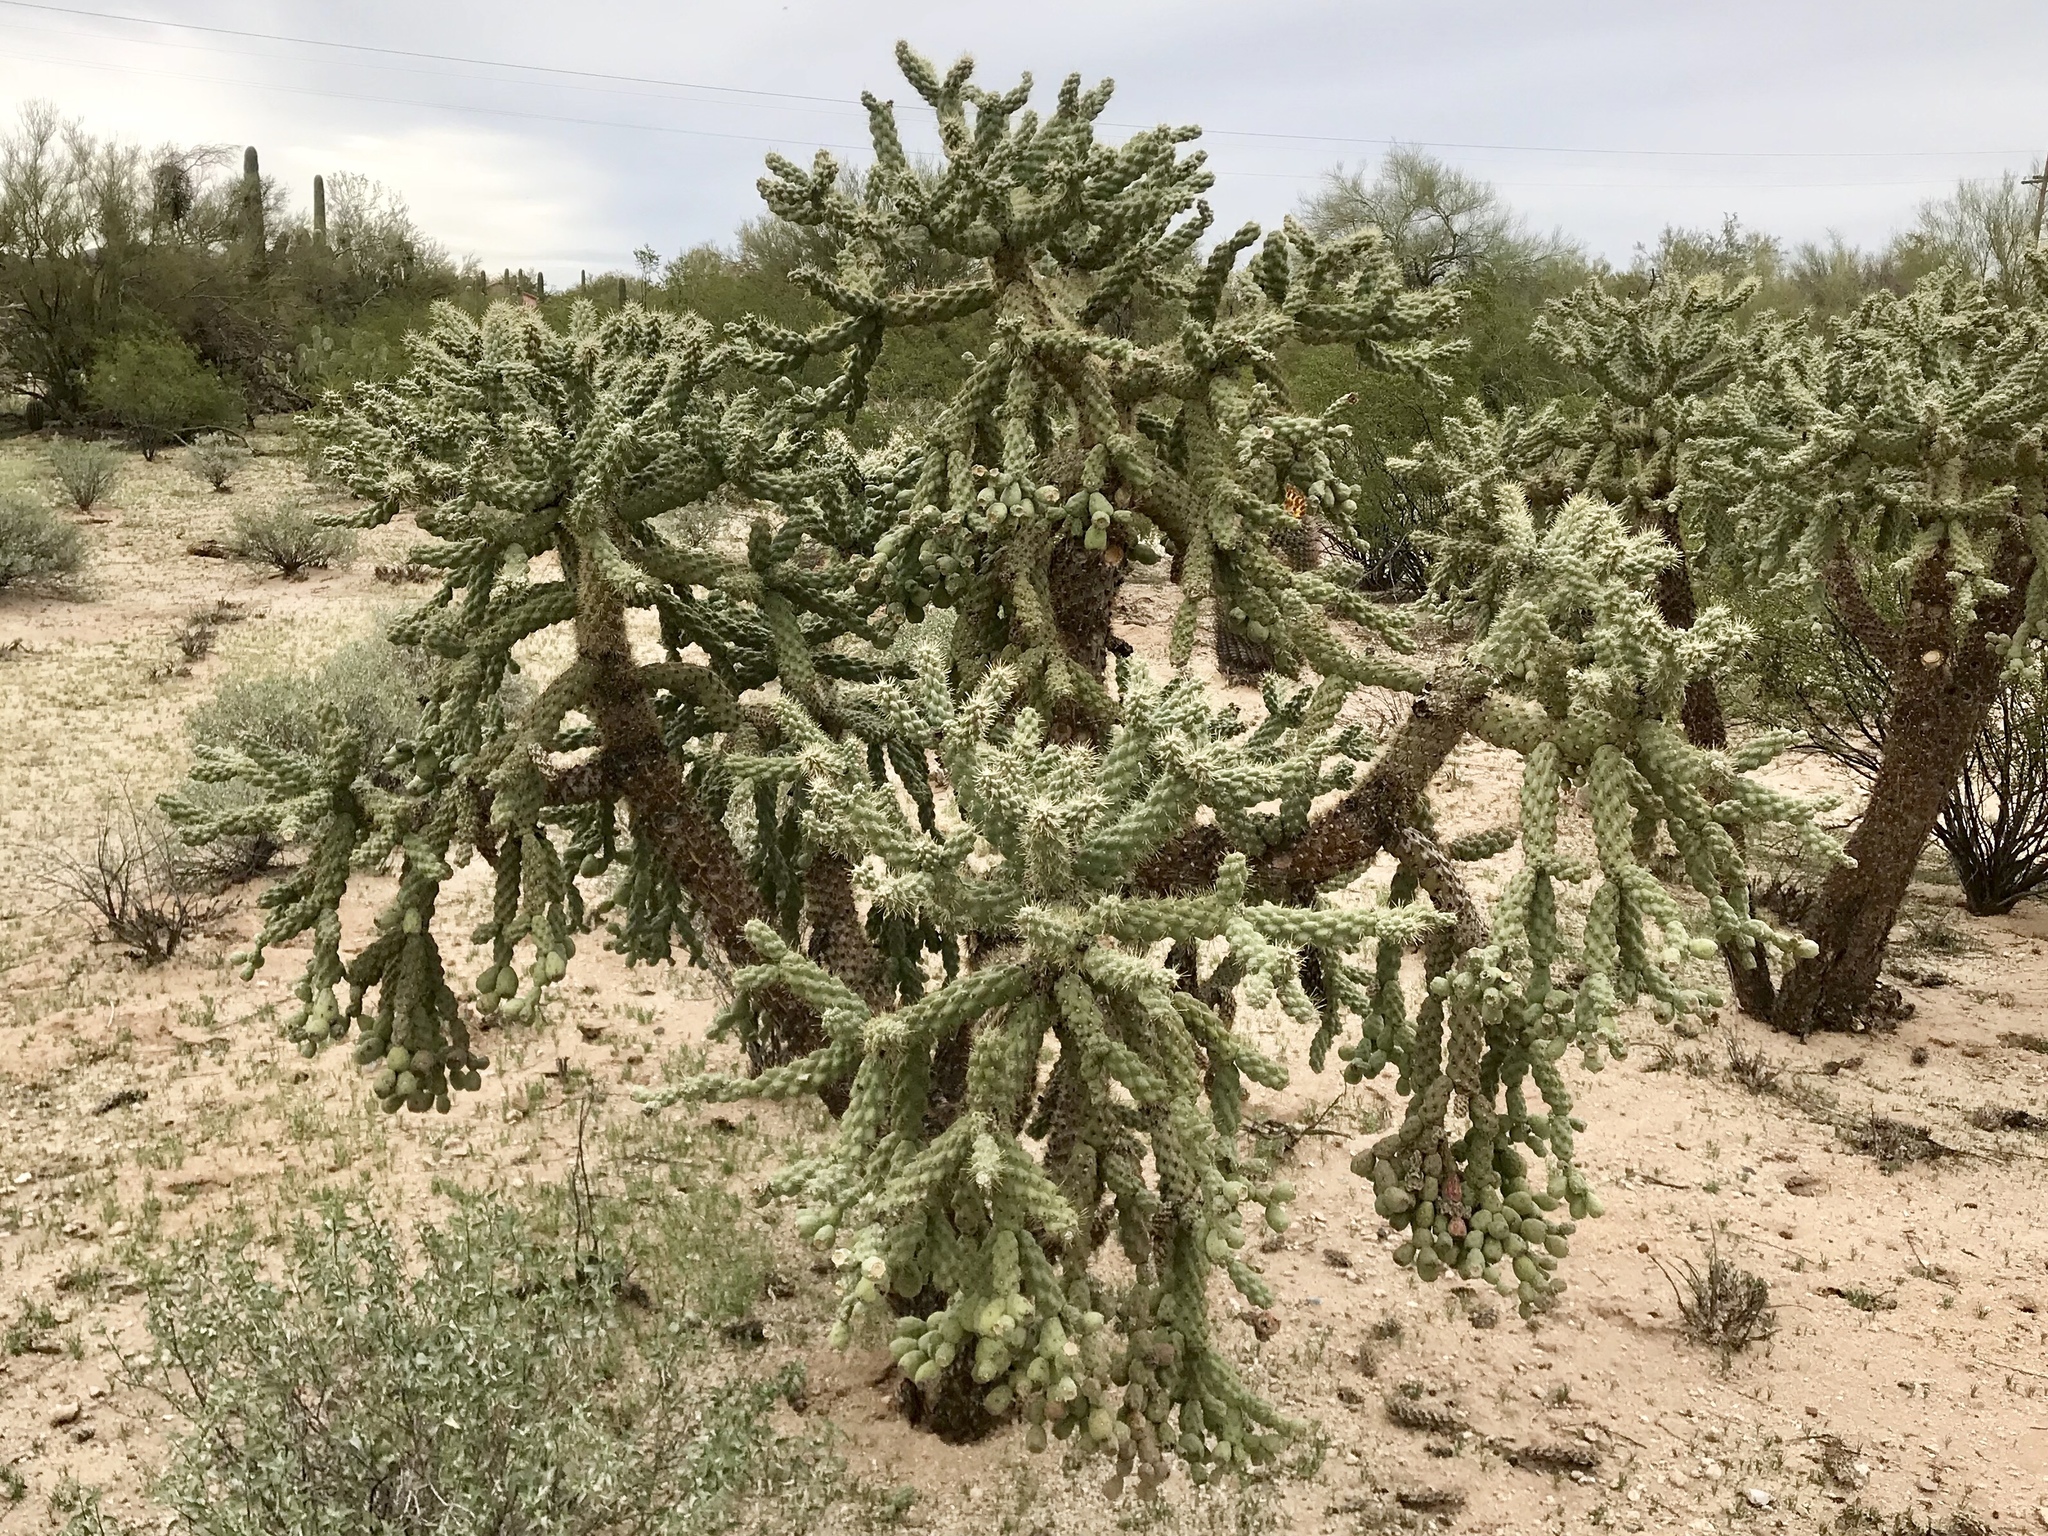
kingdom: Plantae
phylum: Tracheophyta
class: Magnoliopsida
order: Caryophyllales
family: Cactaceae
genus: Cylindropuntia
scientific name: Cylindropuntia fulgida
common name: Jumping cholla
